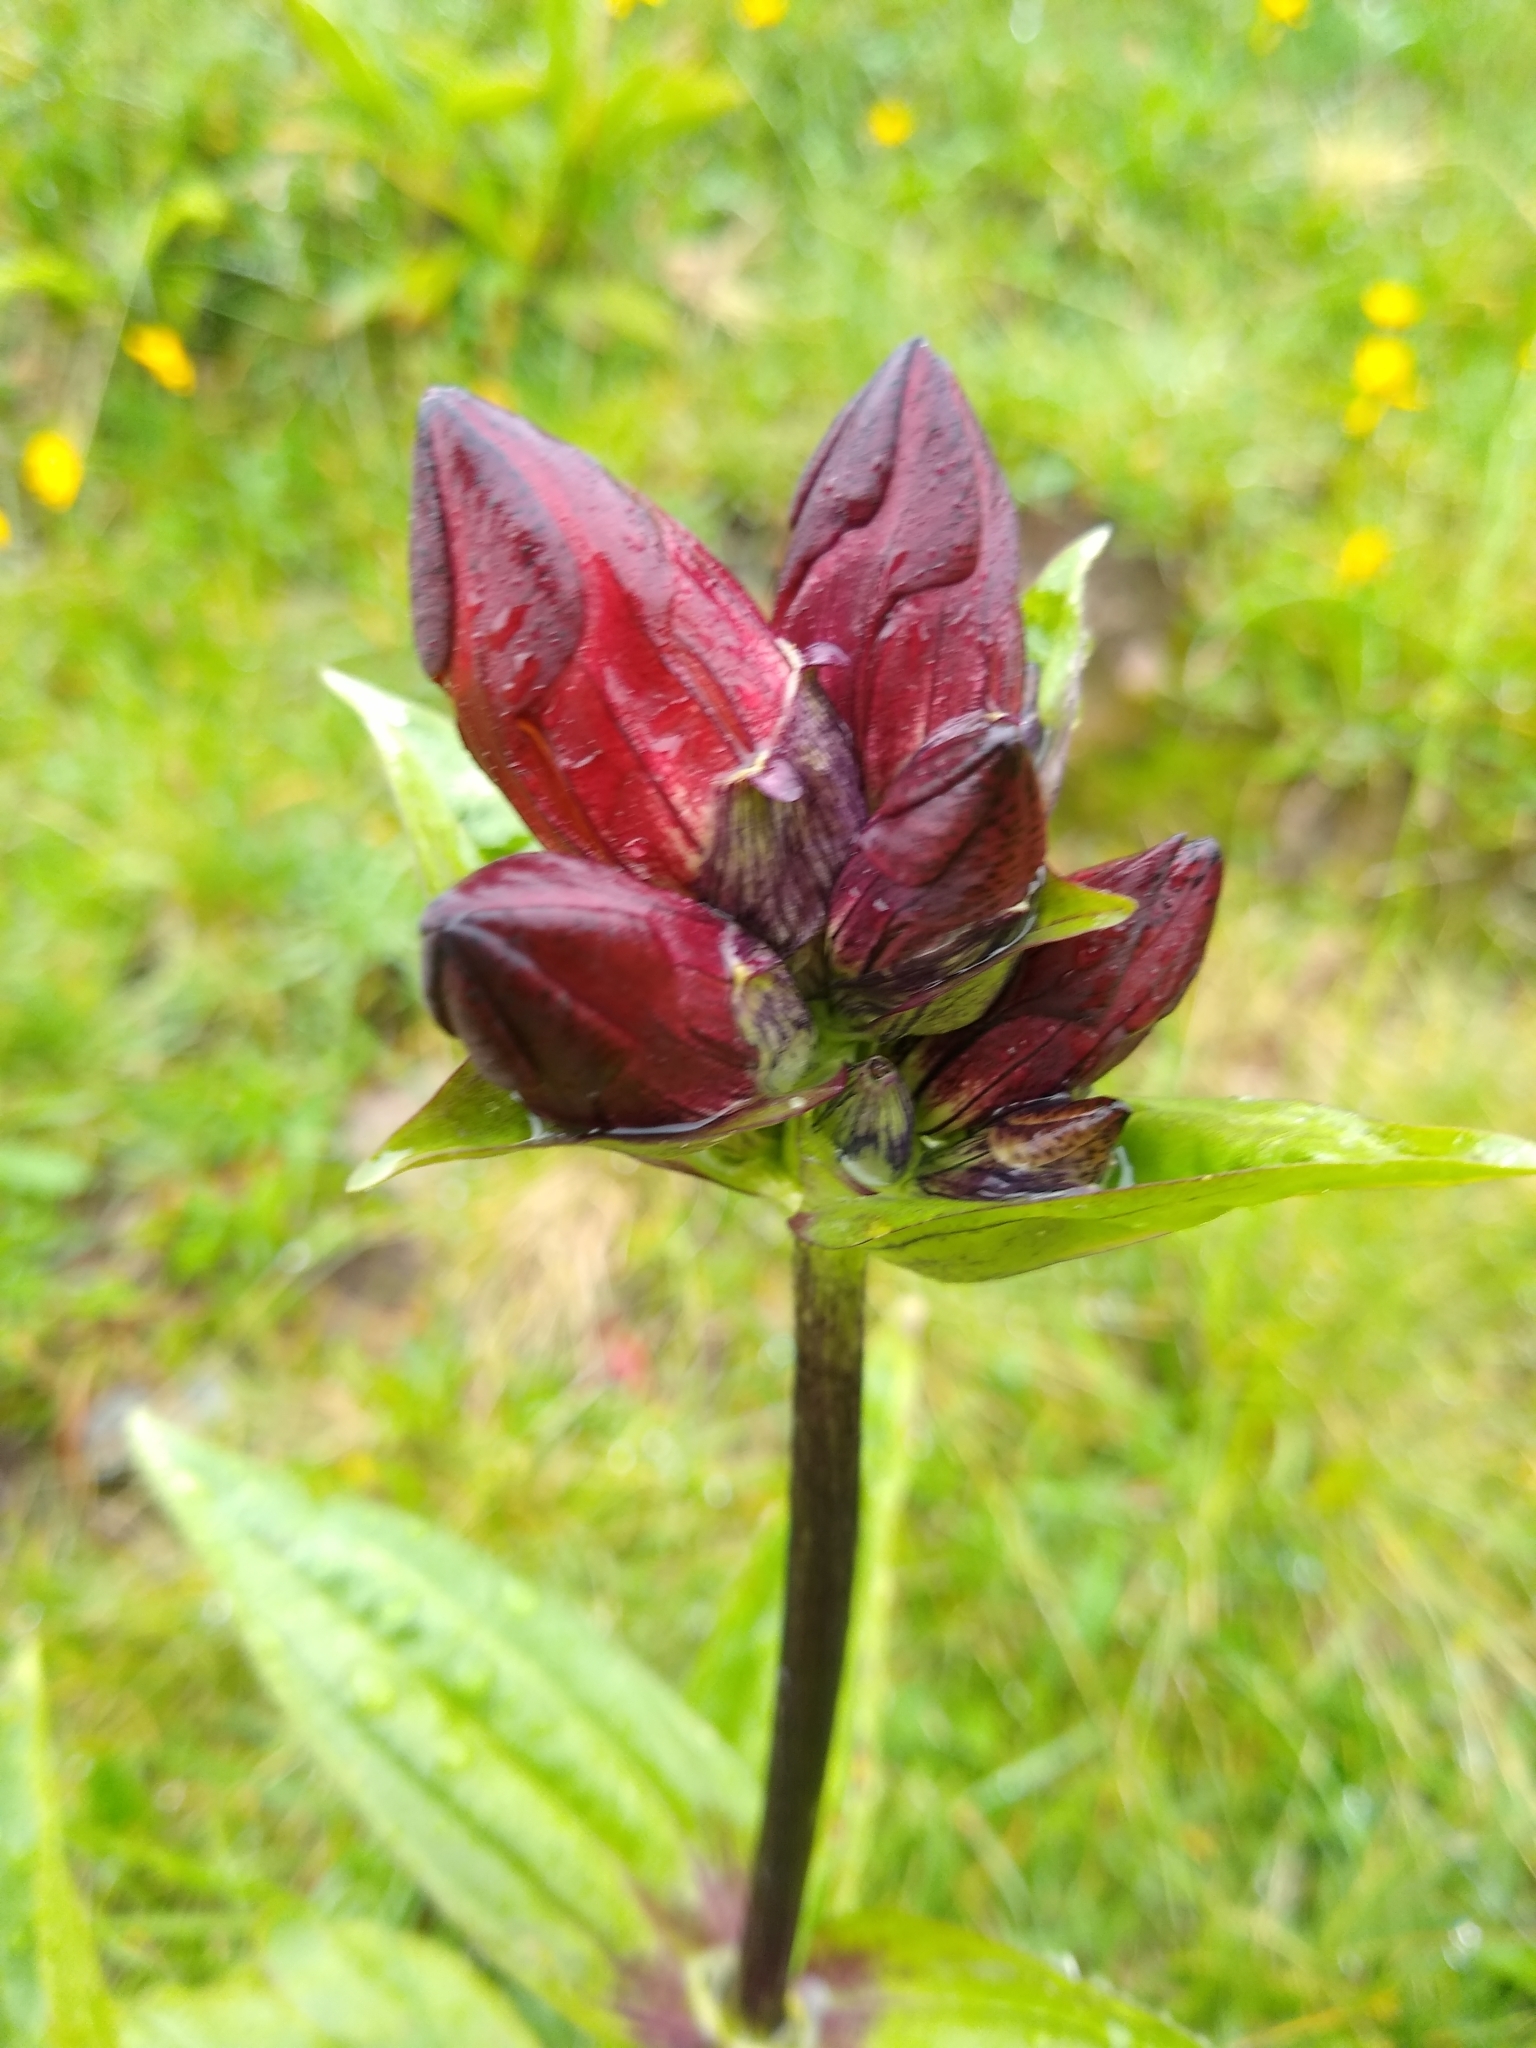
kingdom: Plantae
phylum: Tracheophyta
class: Magnoliopsida
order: Gentianales
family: Gentianaceae
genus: Gentiana
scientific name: Gentiana purpurea
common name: Purple gentian
